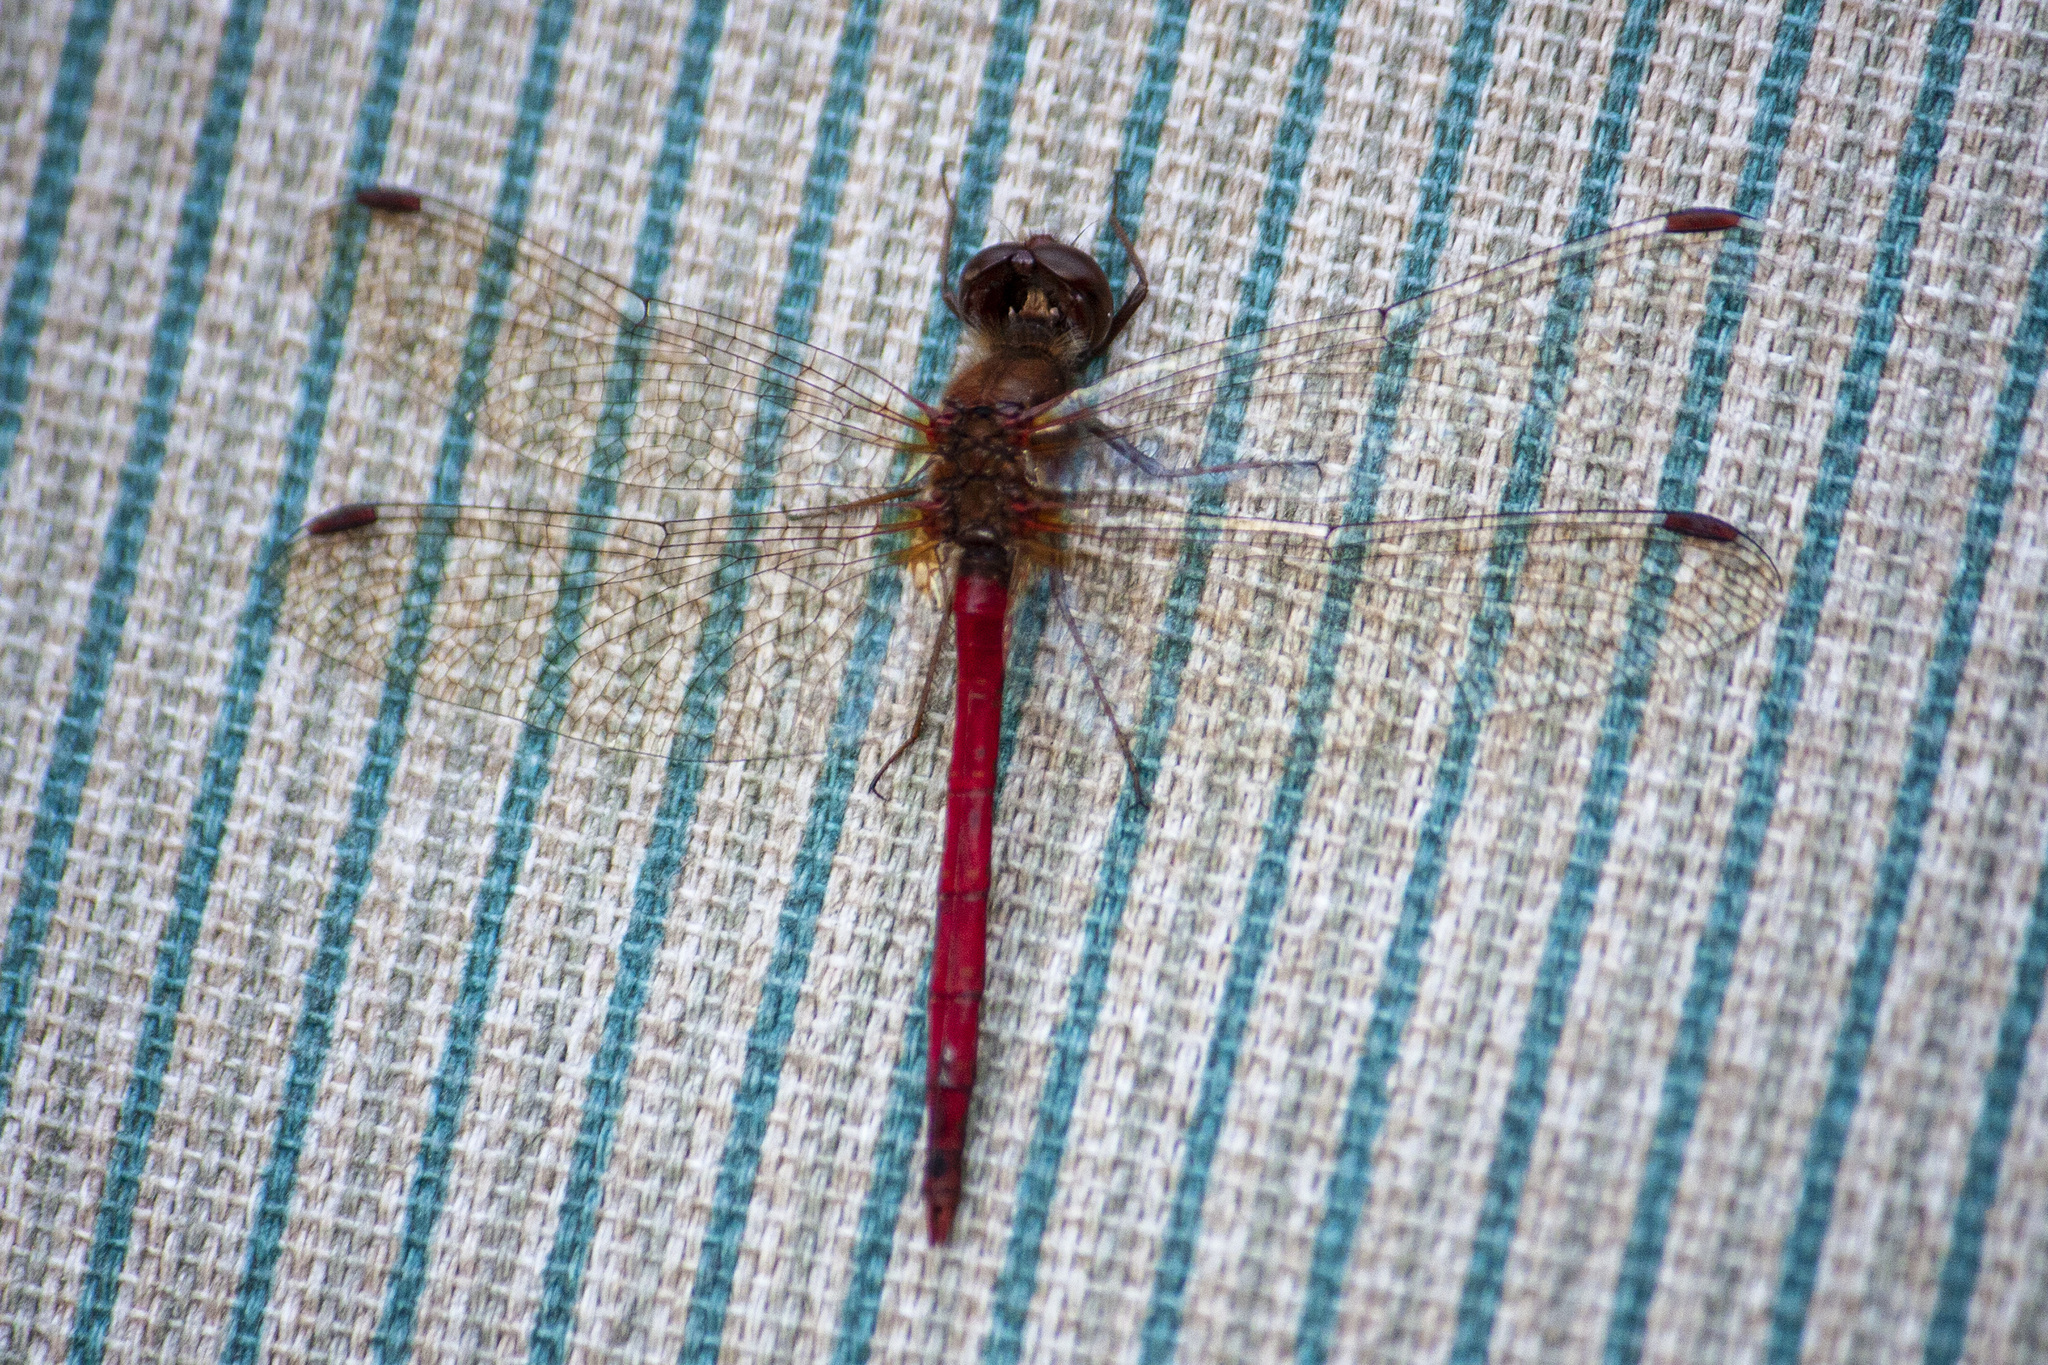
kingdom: Animalia
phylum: Arthropoda
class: Insecta
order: Odonata
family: Libellulidae
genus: Sympetrum
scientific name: Sympetrum vicinum
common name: Autumn meadowhawk
